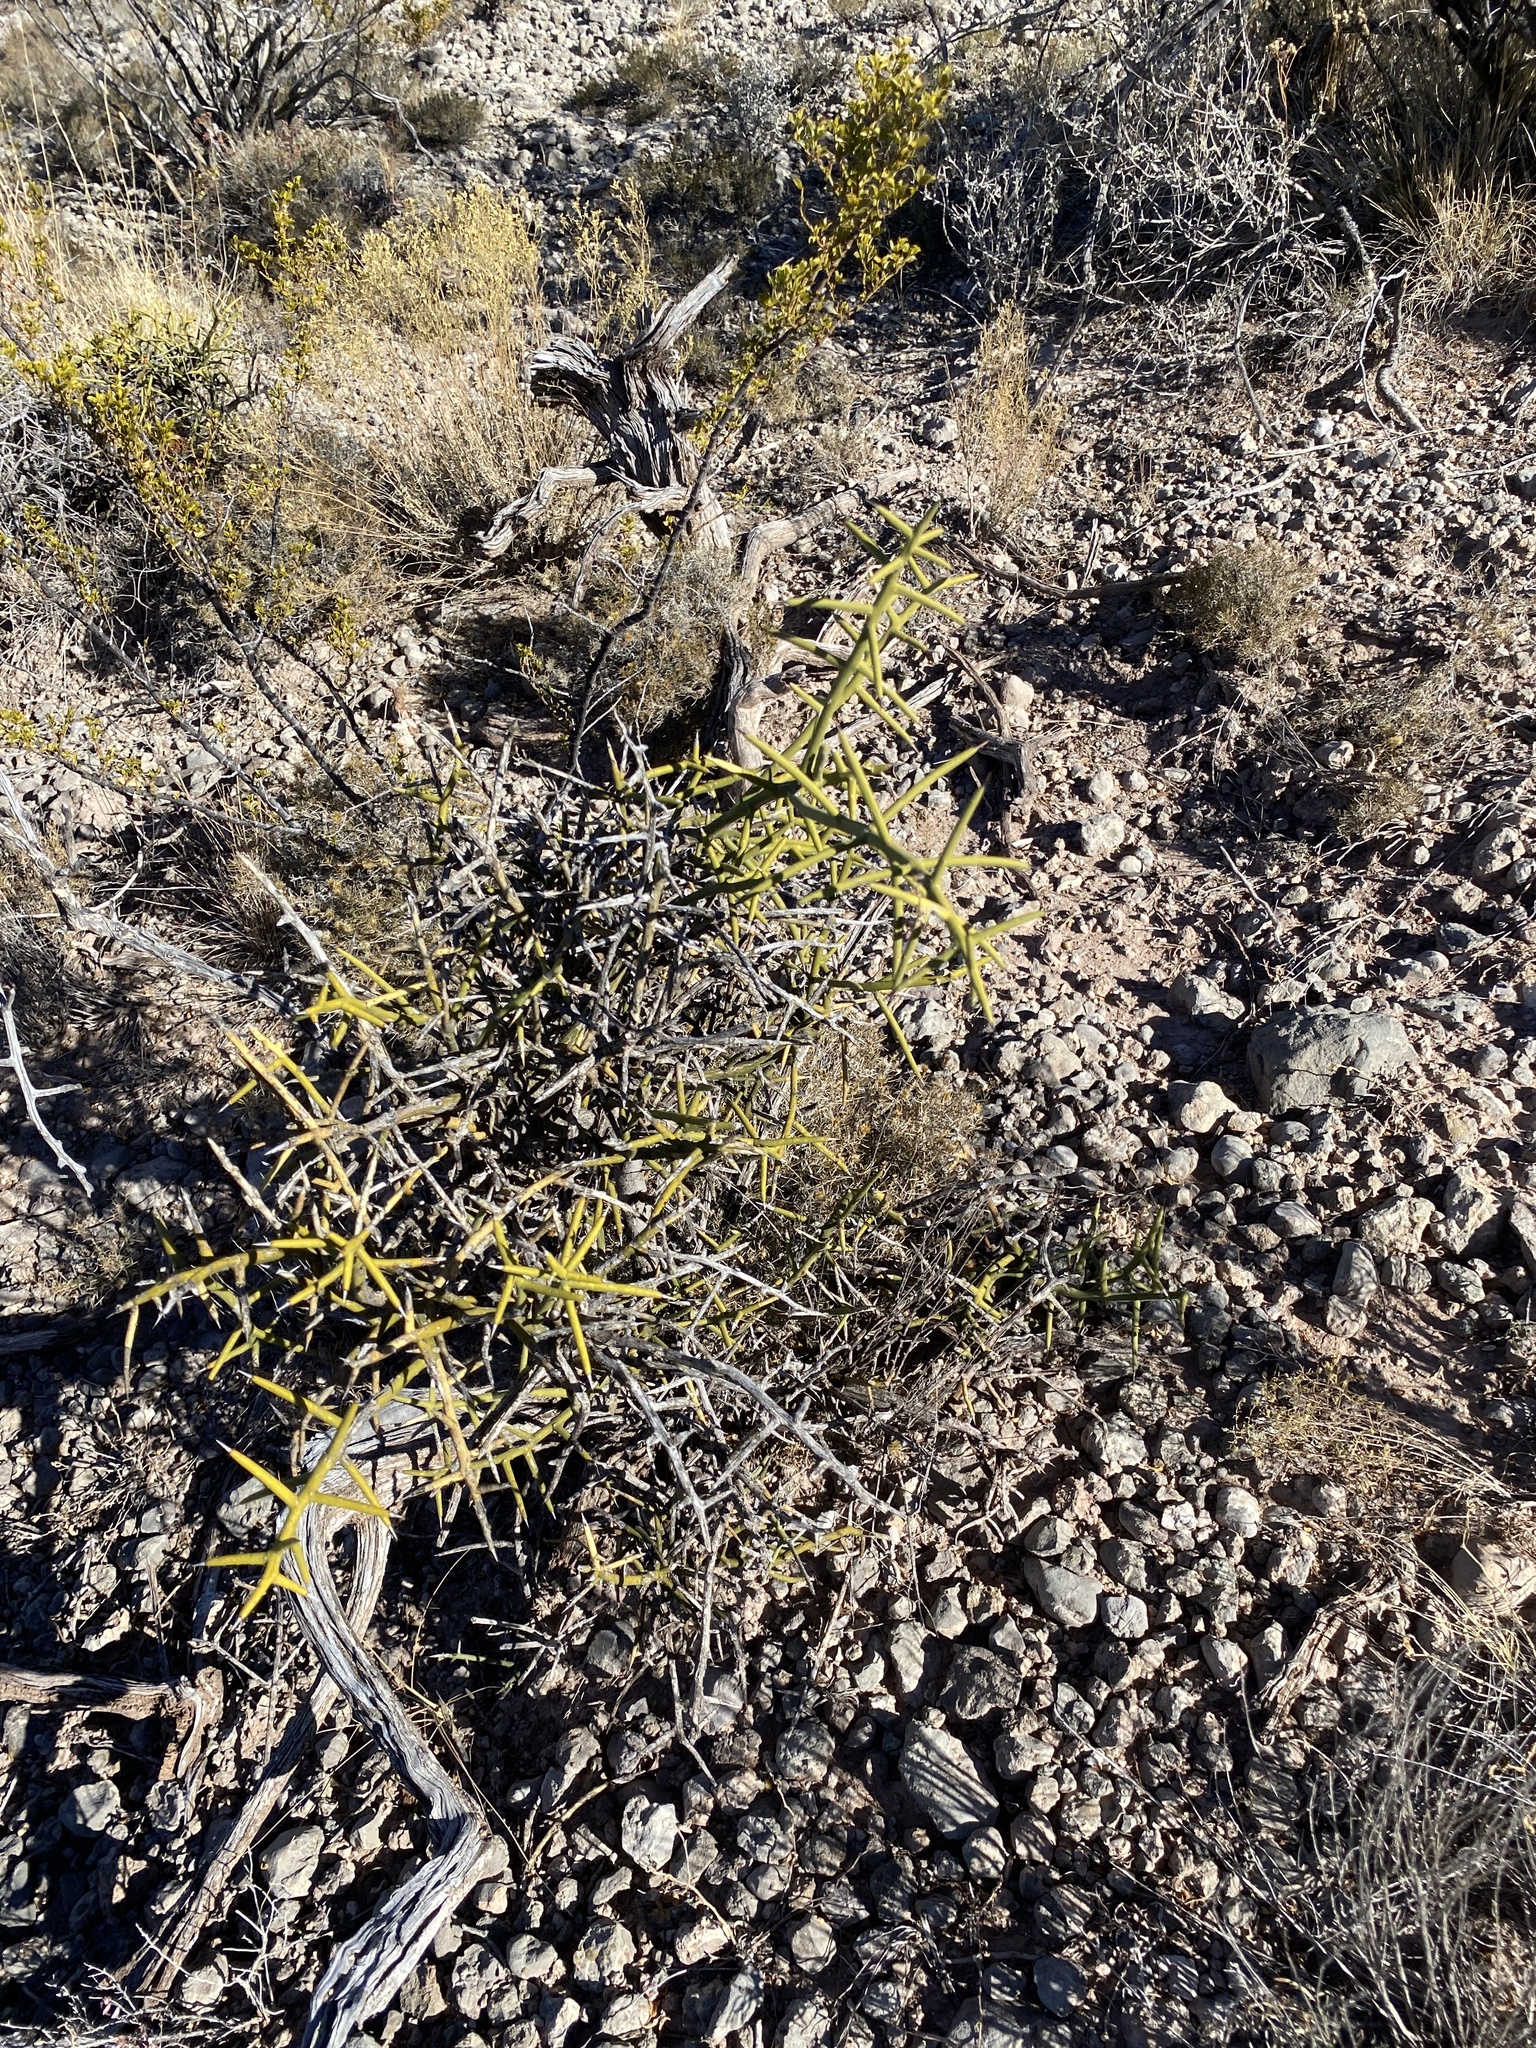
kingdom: Plantae
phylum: Tracheophyta
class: Magnoliopsida
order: Brassicales
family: Koeberliniaceae
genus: Koeberlinia
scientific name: Koeberlinia spinosa
